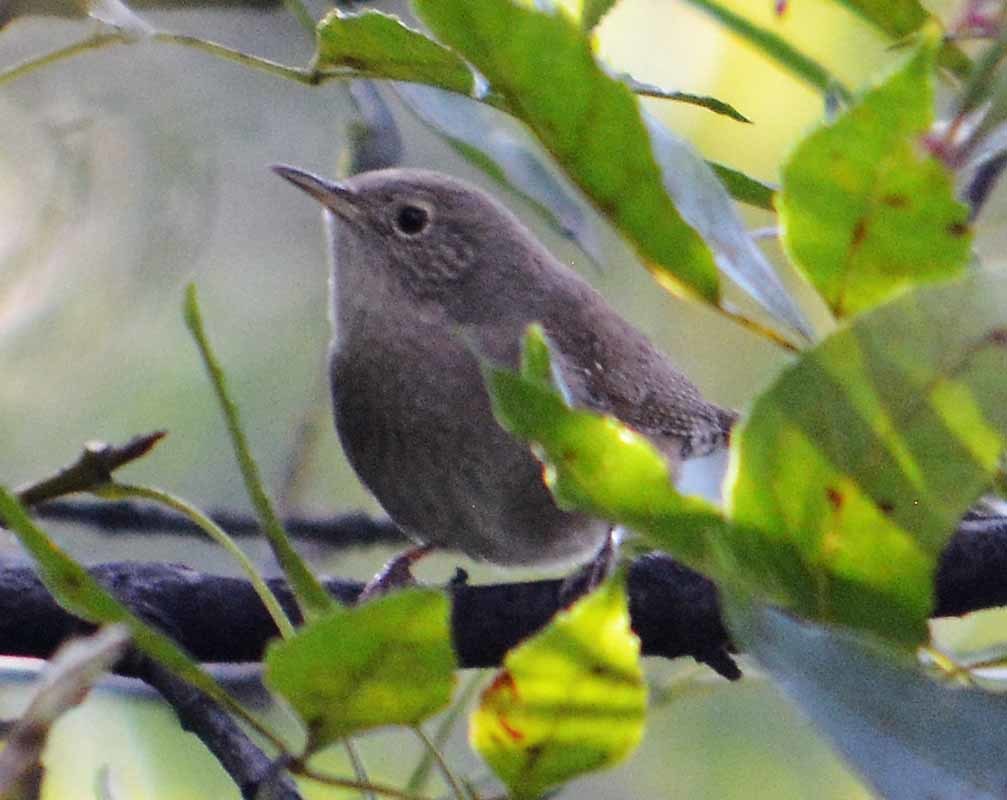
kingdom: Animalia
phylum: Chordata
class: Aves
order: Passeriformes
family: Troglodytidae
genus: Troglodytes
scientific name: Troglodytes aedon
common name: House wren
